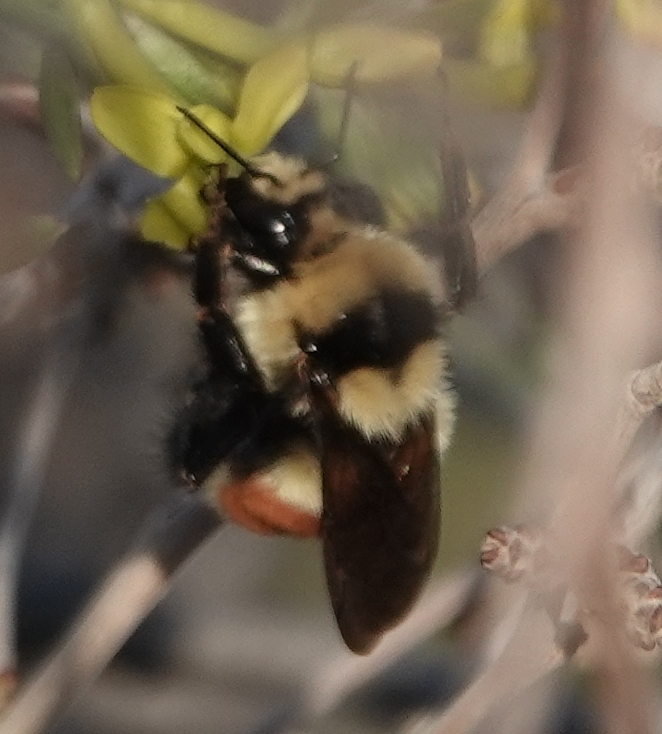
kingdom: Animalia
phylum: Arthropoda
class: Insecta
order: Hymenoptera
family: Apidae
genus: Bombus
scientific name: Bombus huntii
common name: Hunt bumble bee
